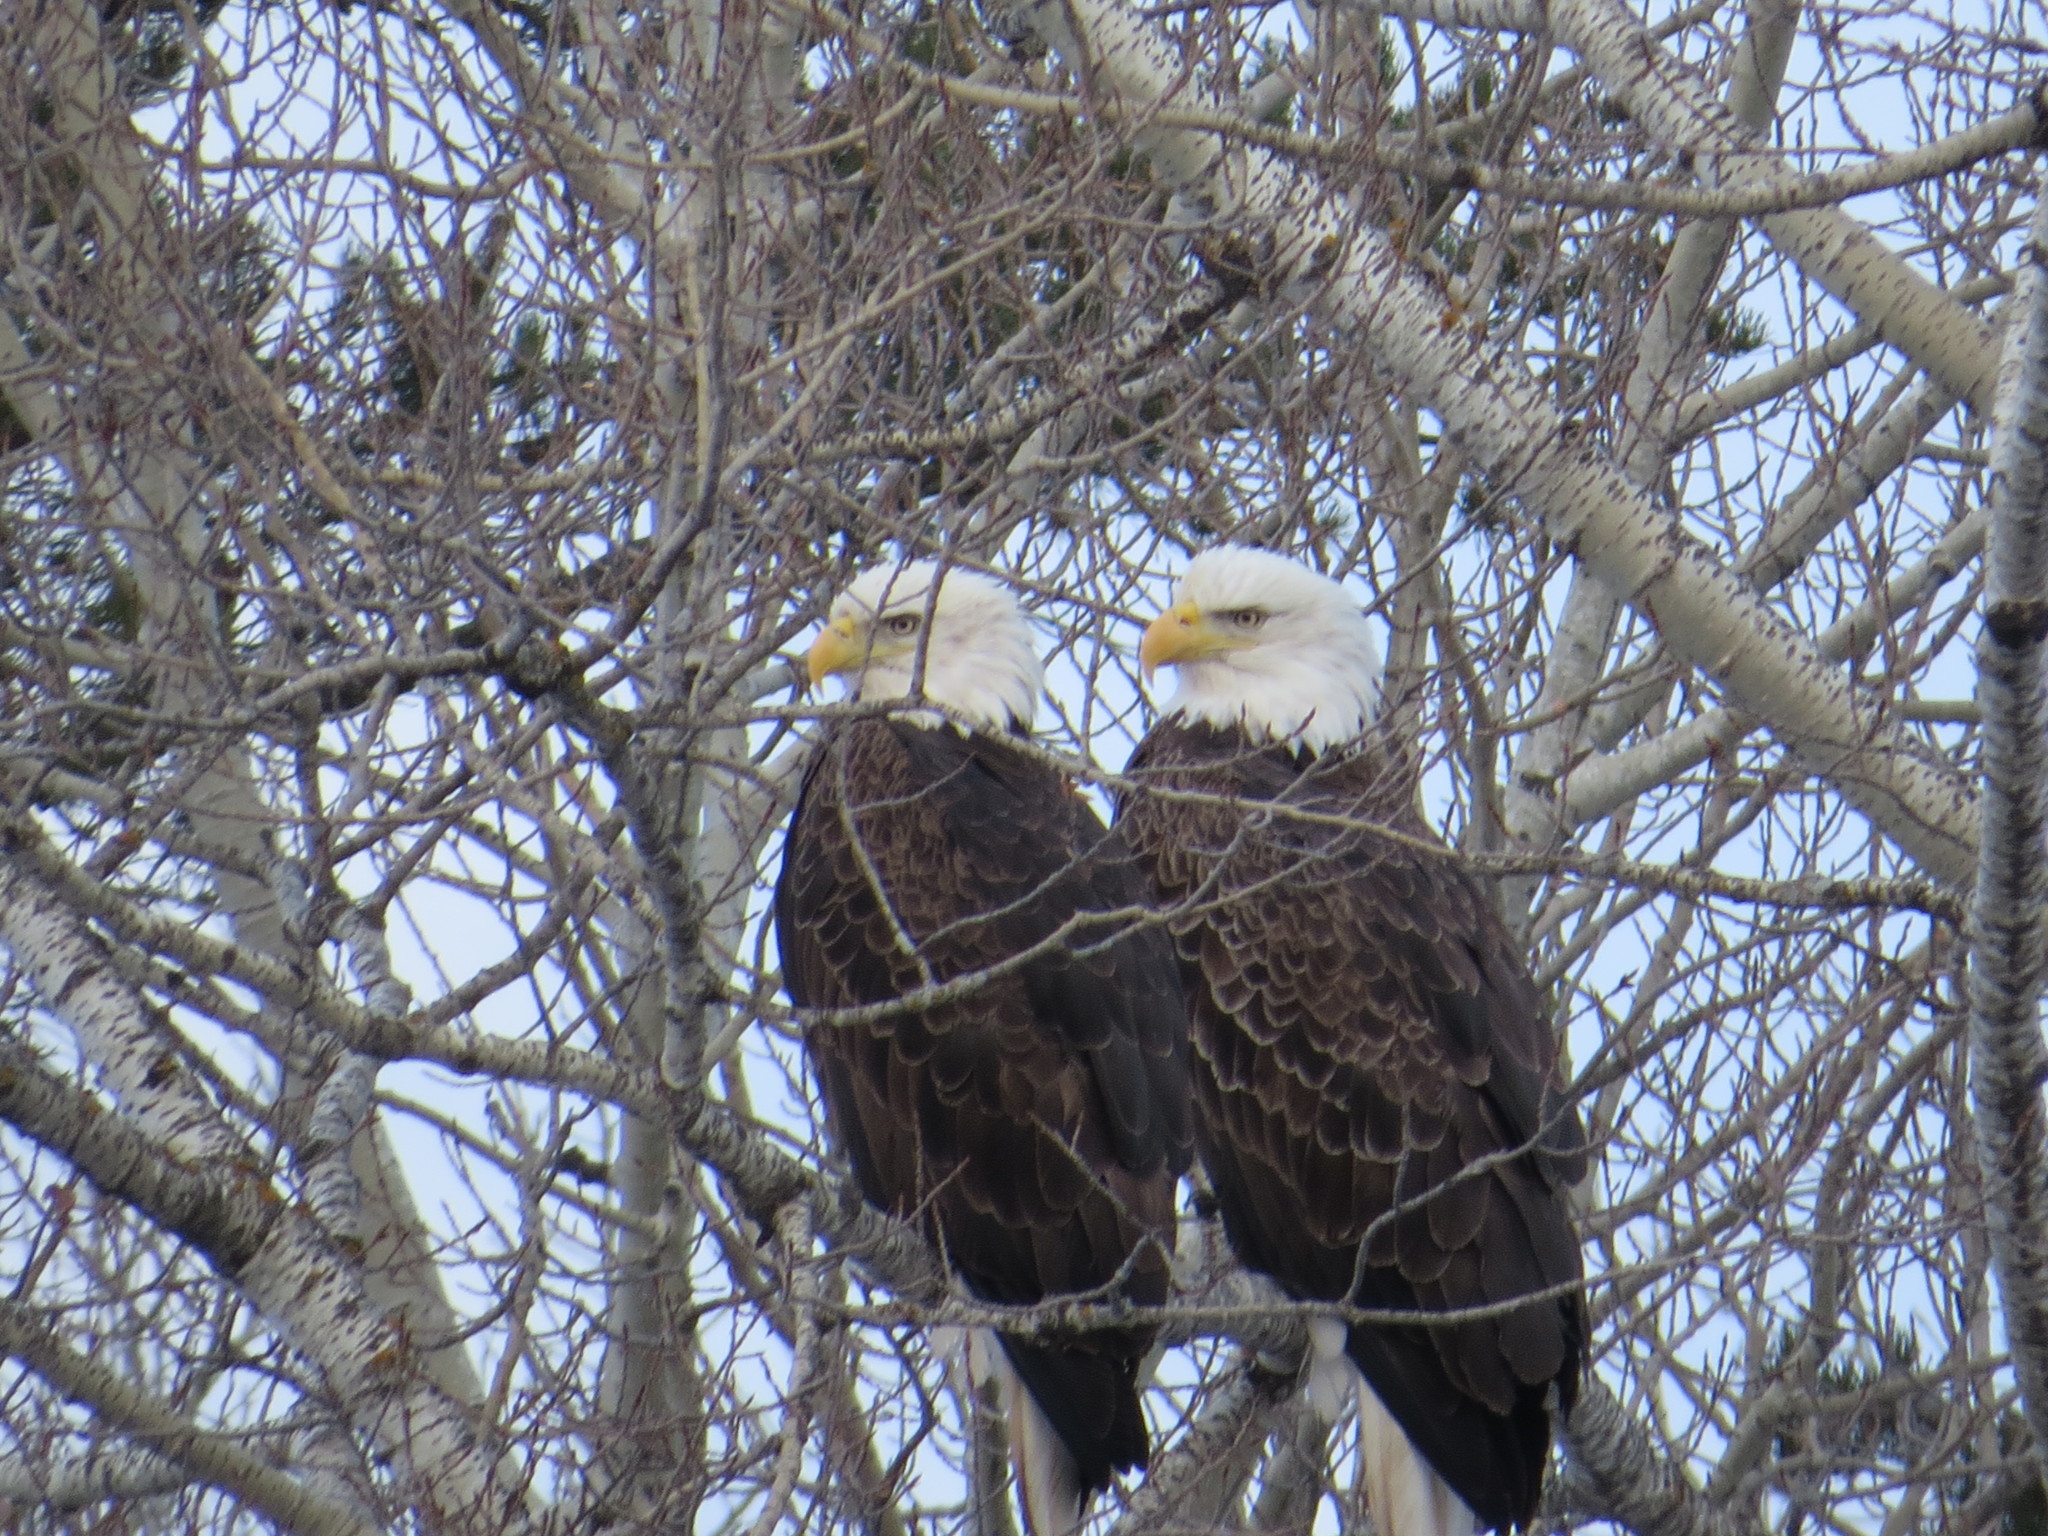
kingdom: Animalia
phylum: Chordata
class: Aves
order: Accipitriformes
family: Accipitridae
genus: Haliaeetus
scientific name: Haliaeetus leucocephalus
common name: Bald eagle
